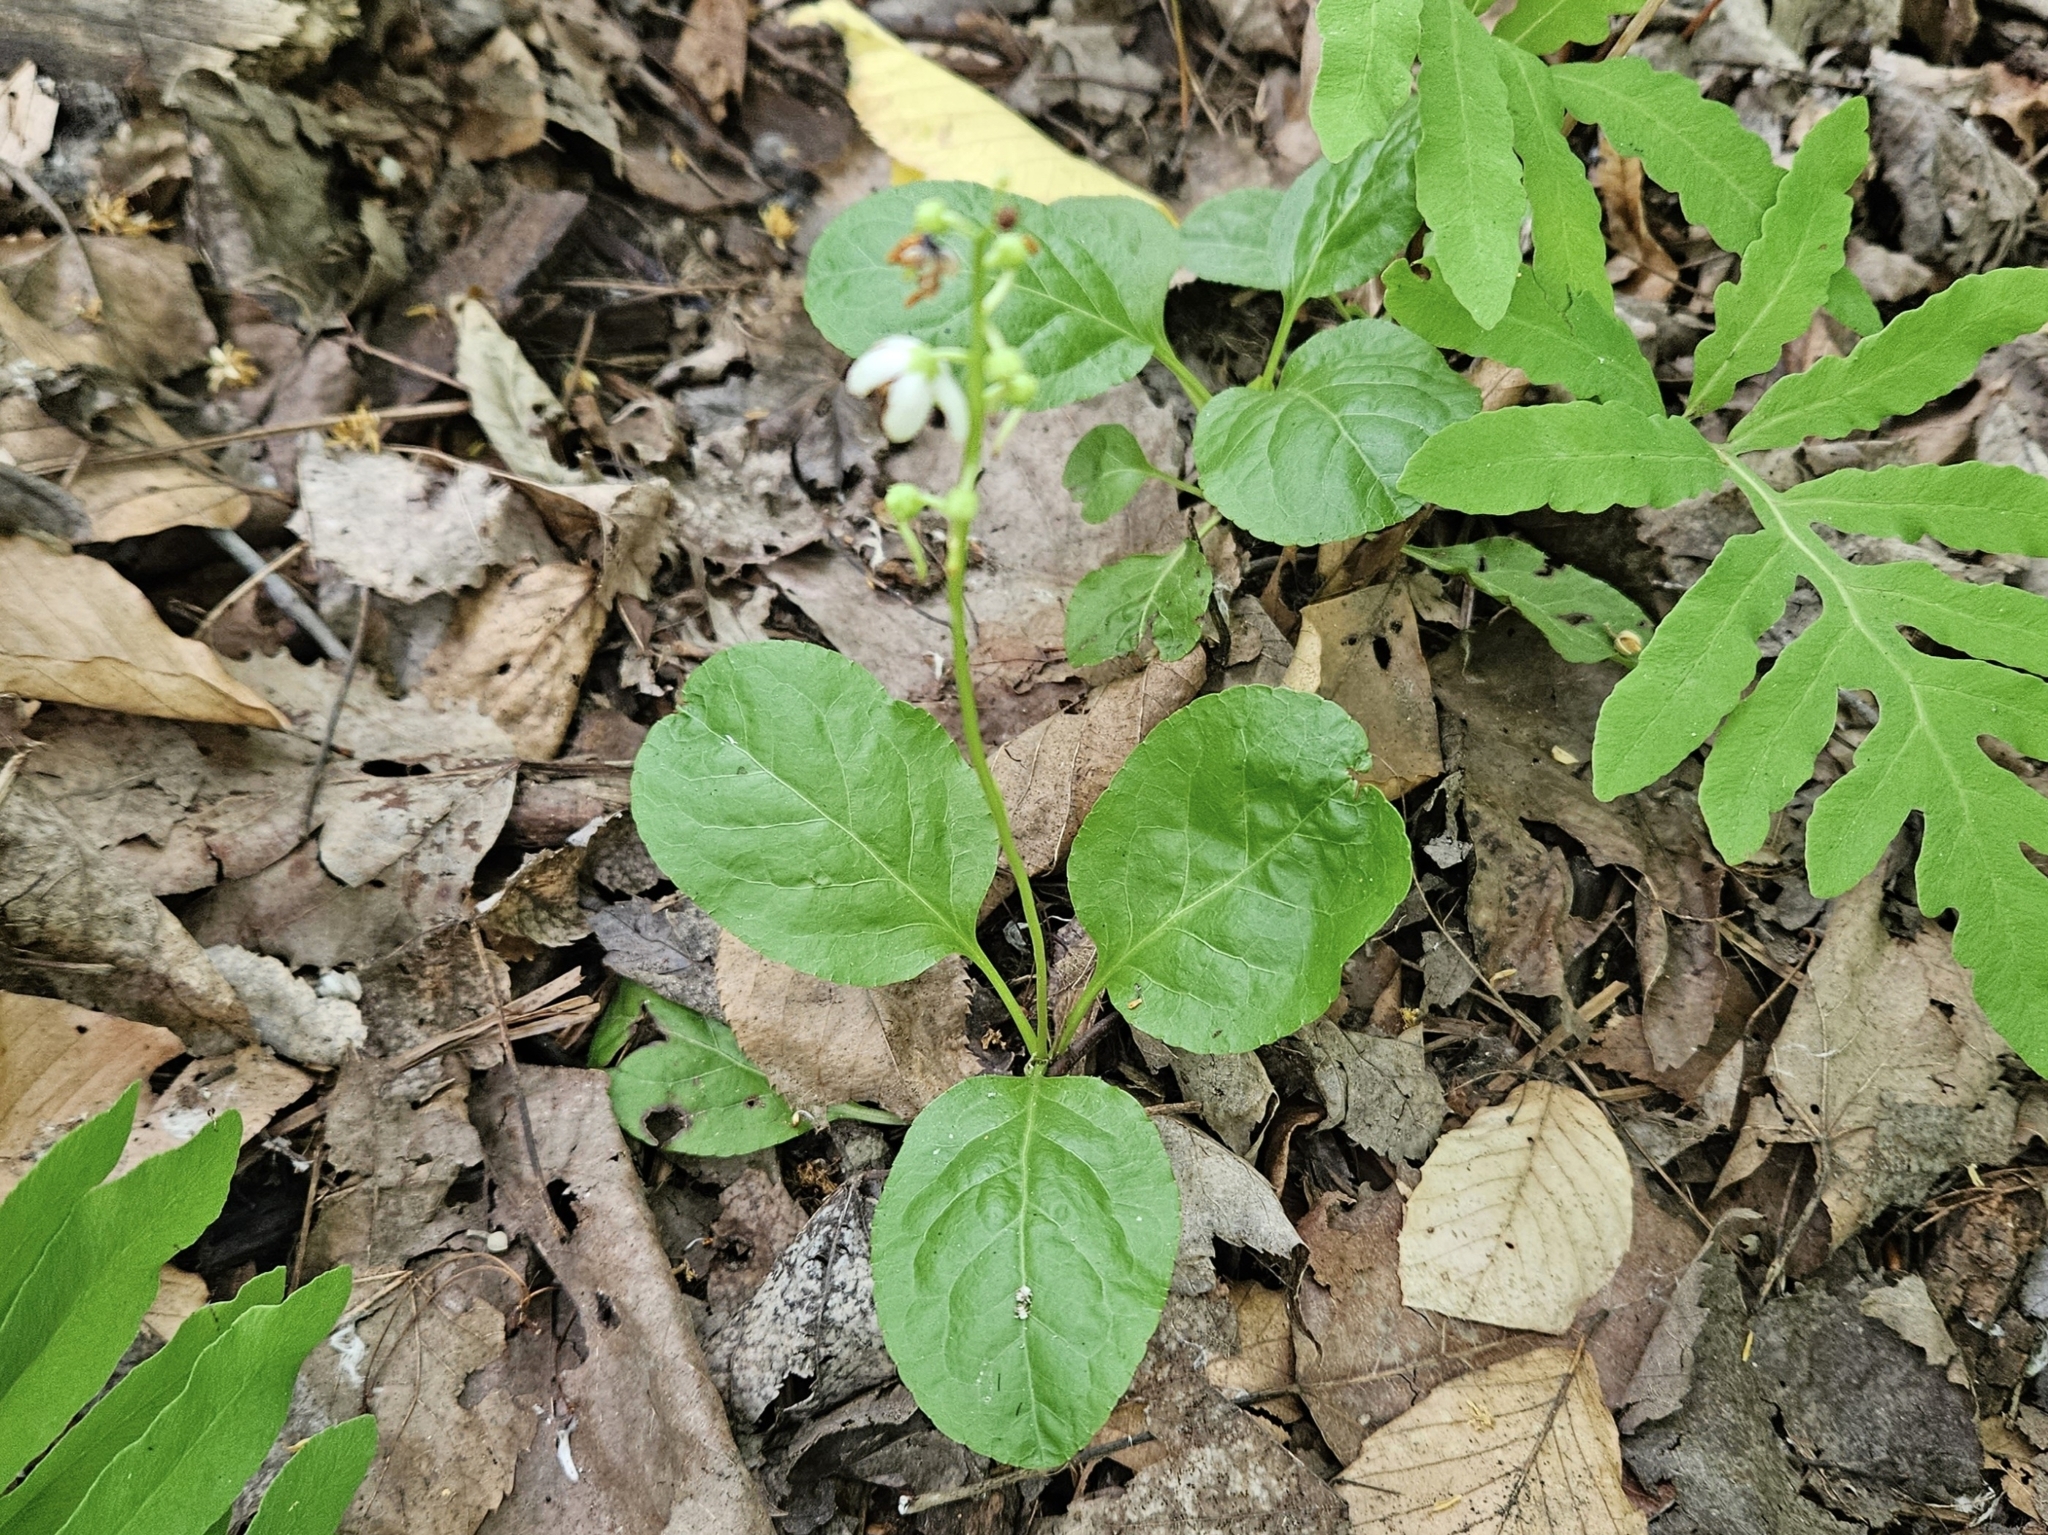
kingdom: Plantae
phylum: Tracheophyta
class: Magnoliopsida
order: Ericales
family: Ericaceae
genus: Pyrola
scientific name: Pyrola elliptica
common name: Shinleaf
